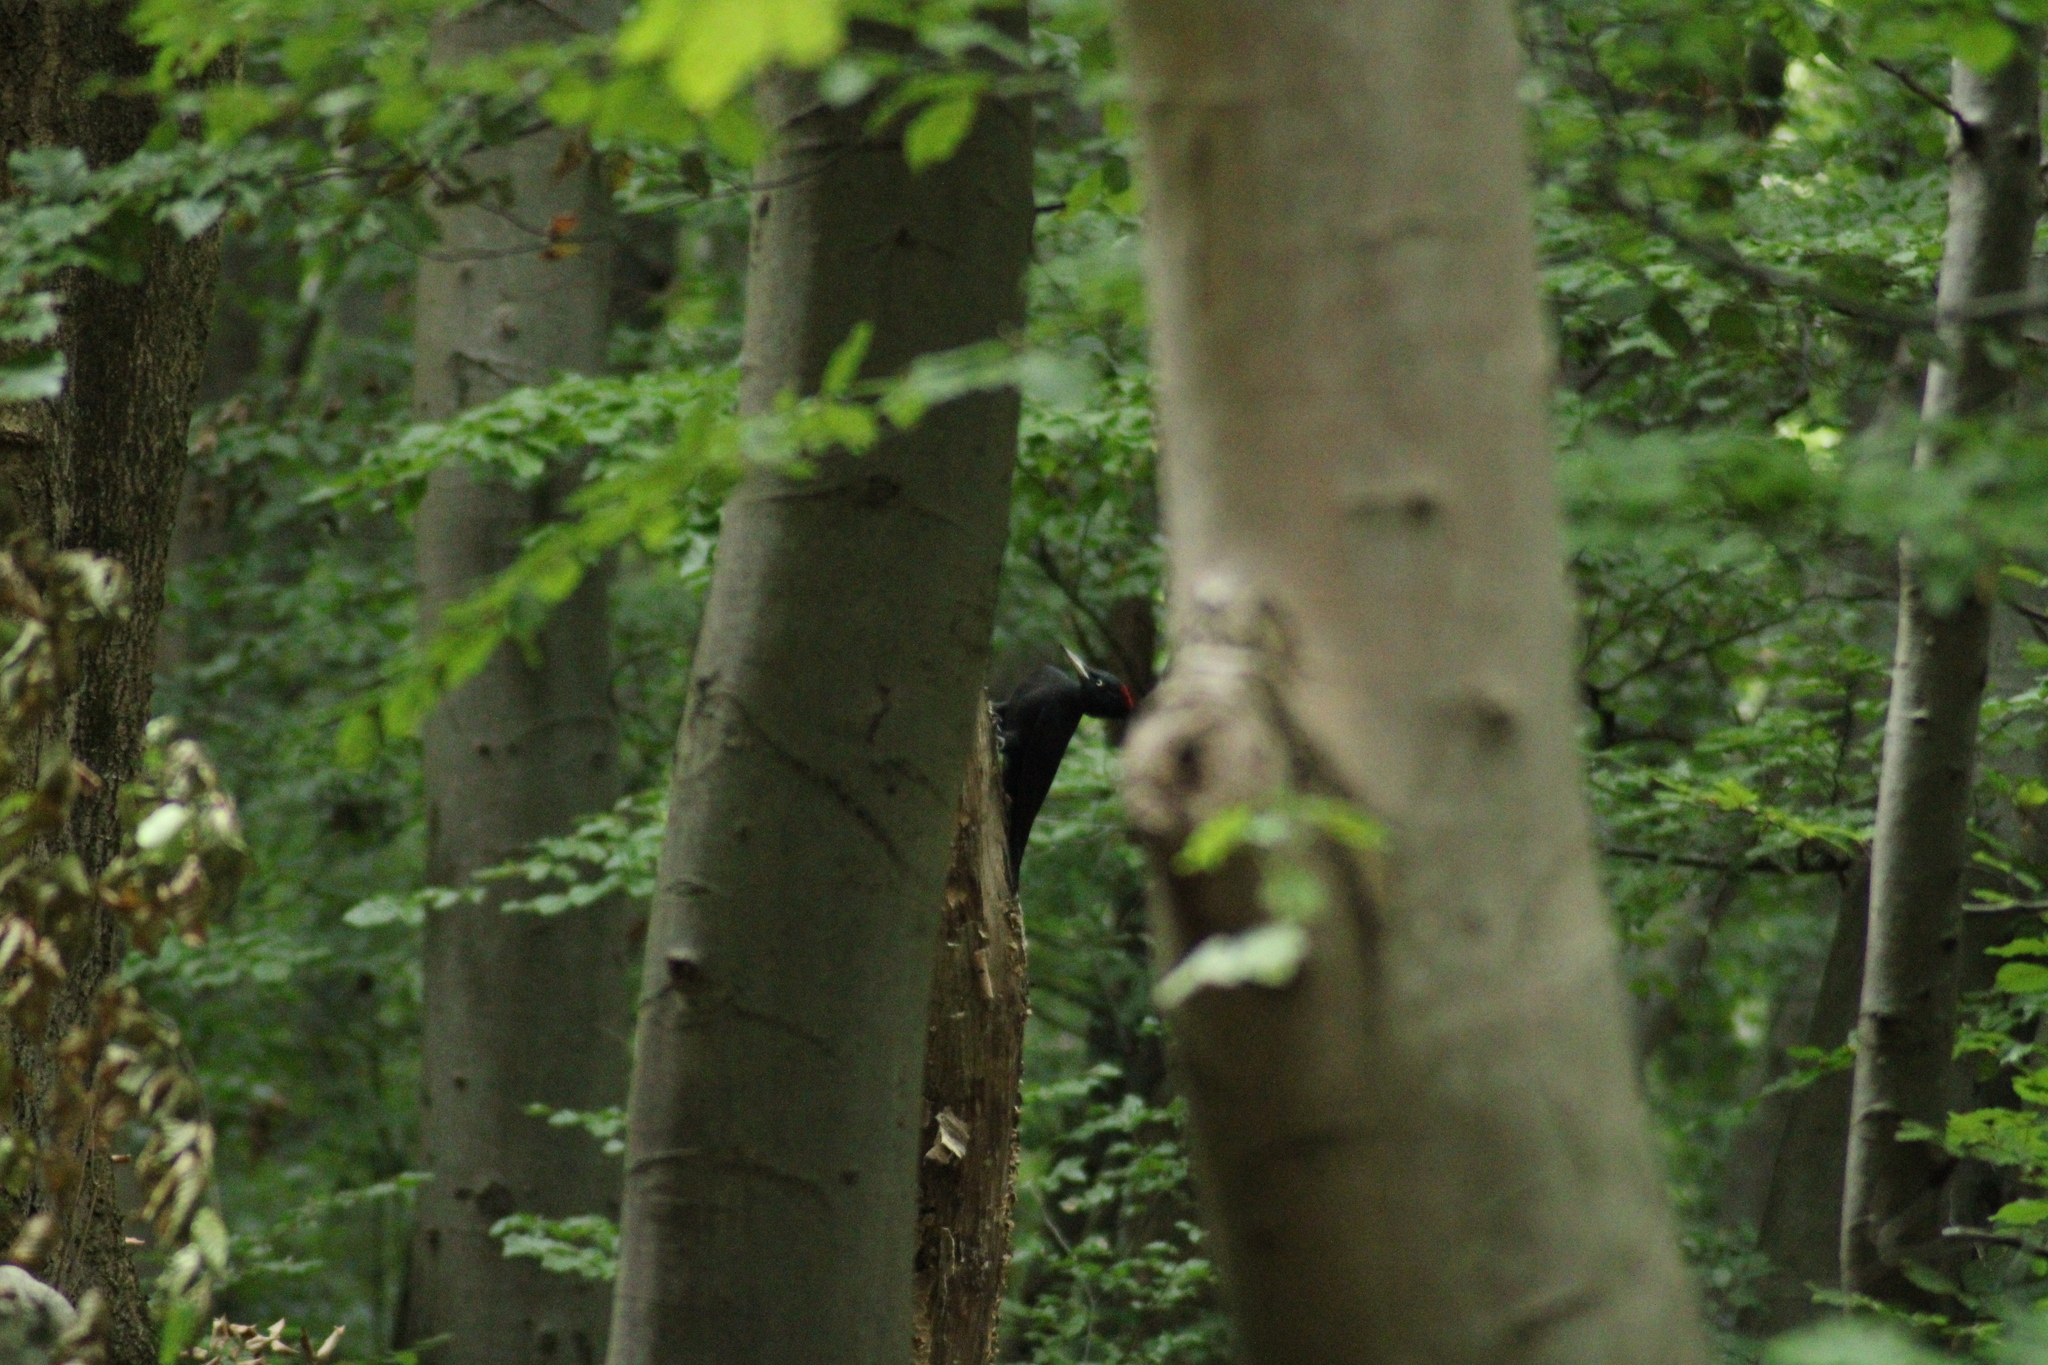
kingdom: Animalia
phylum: Chordata
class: Aves
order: Piciformes
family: Picidae
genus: Dryocopus
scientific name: Dryocopus martius
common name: Black woodpecker
